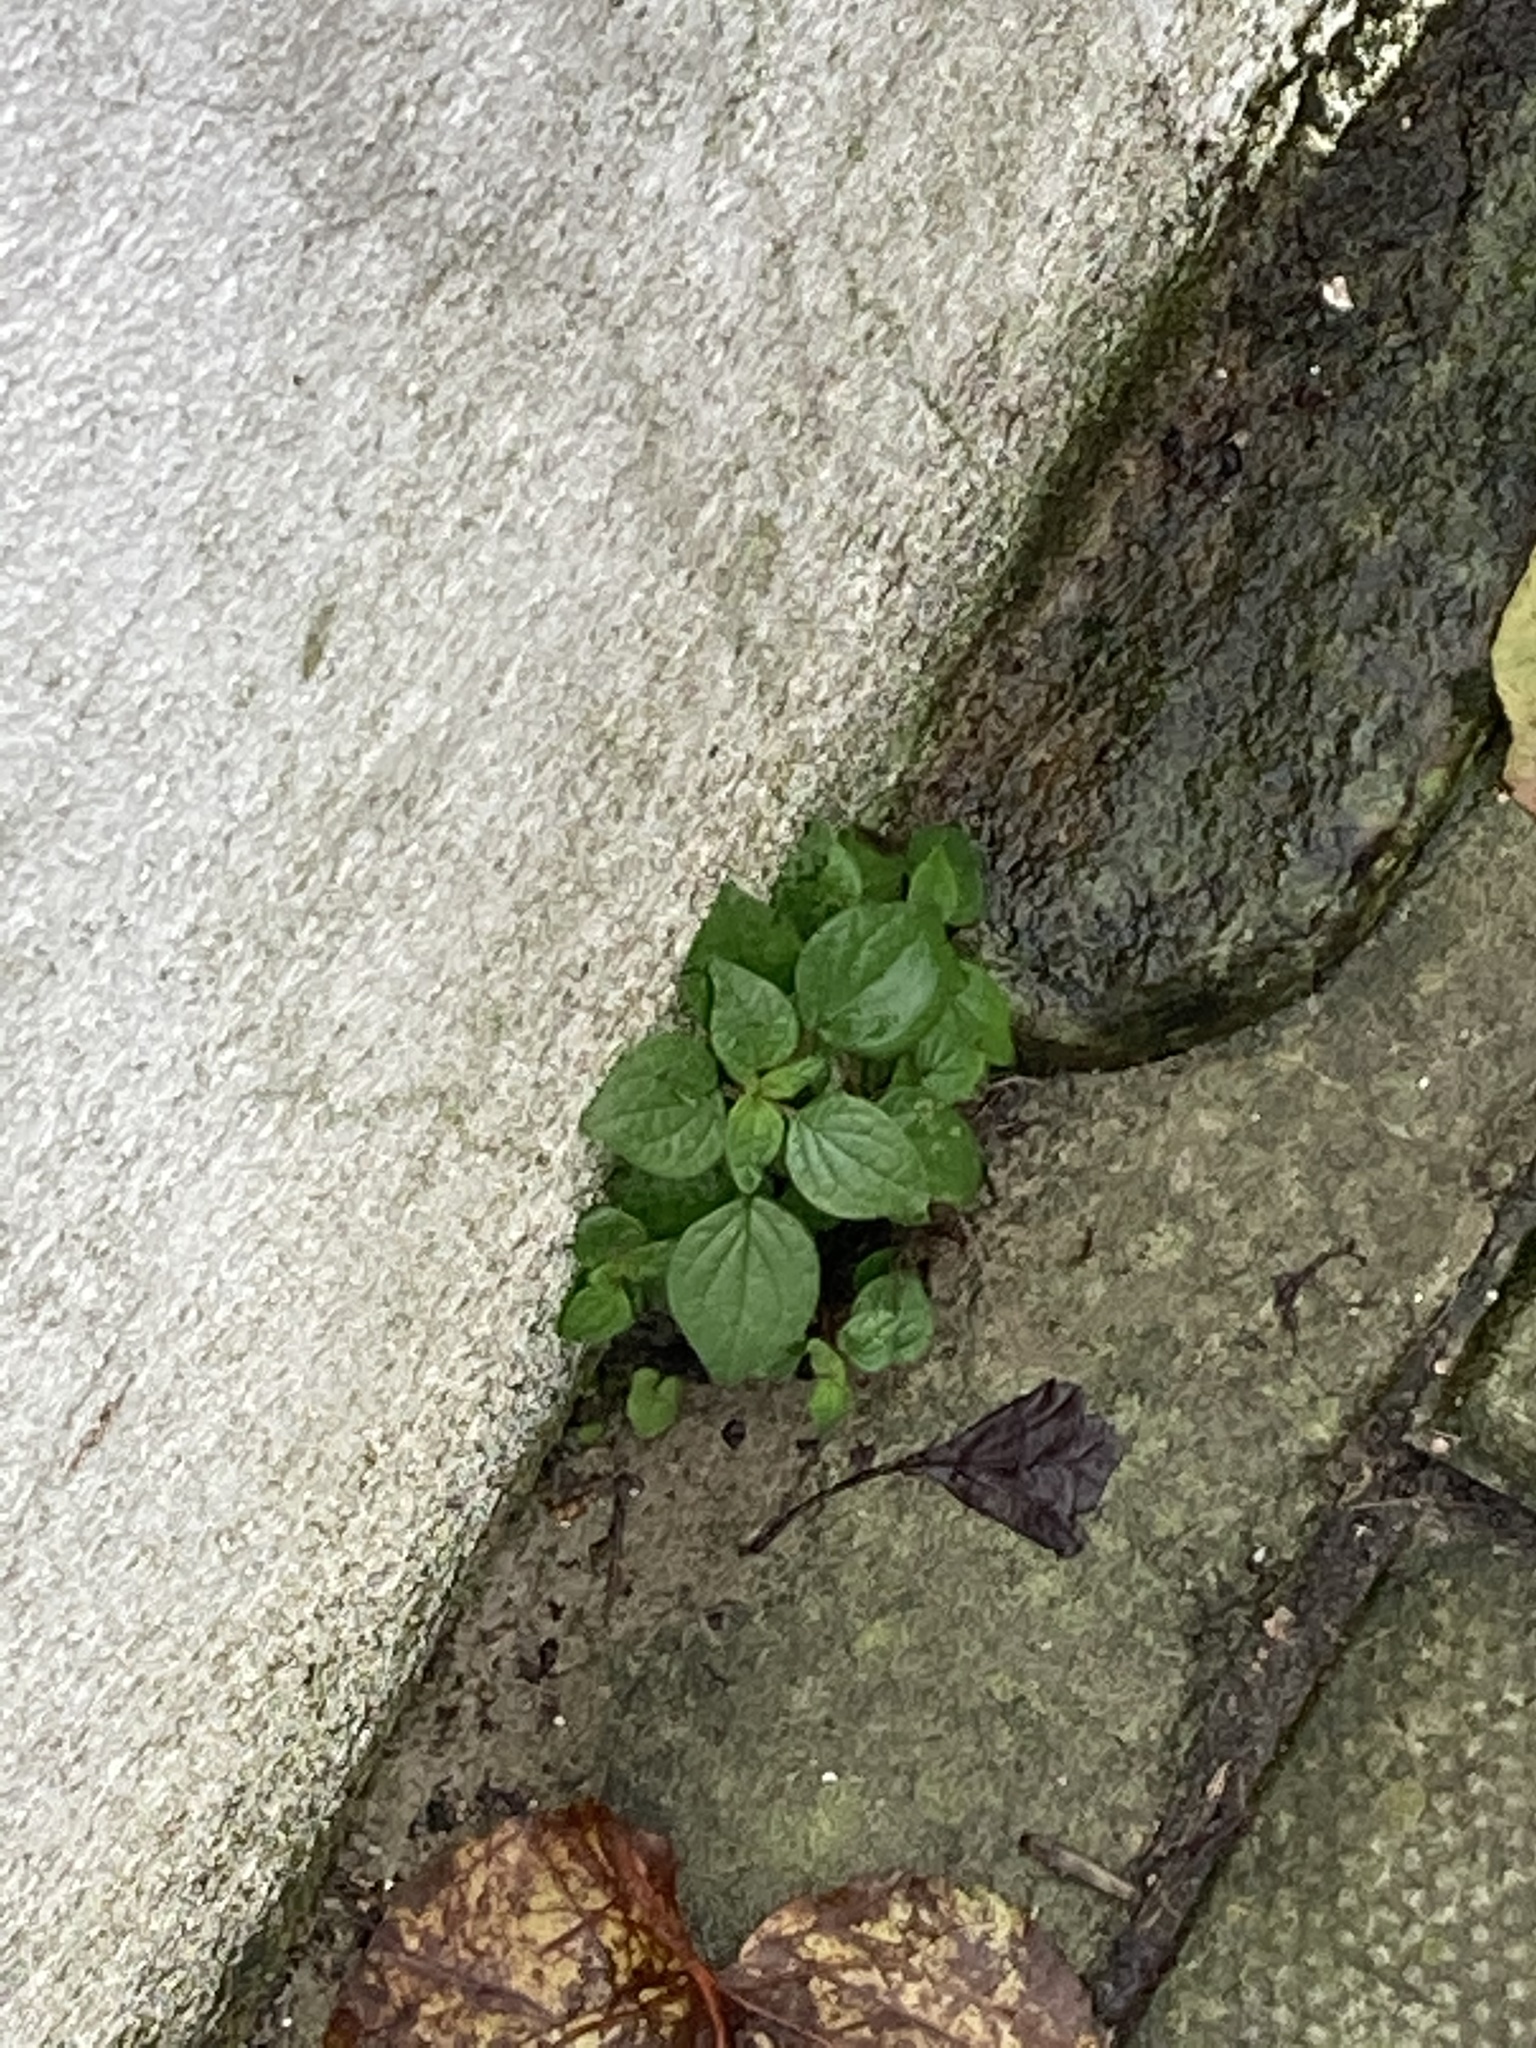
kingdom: Plantae
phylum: Tracheophyta
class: Magnoliopsida
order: Rosales
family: Urticaceae
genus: Parietaria
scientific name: Parietaria judaica
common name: Pellitory-of-the-wall
